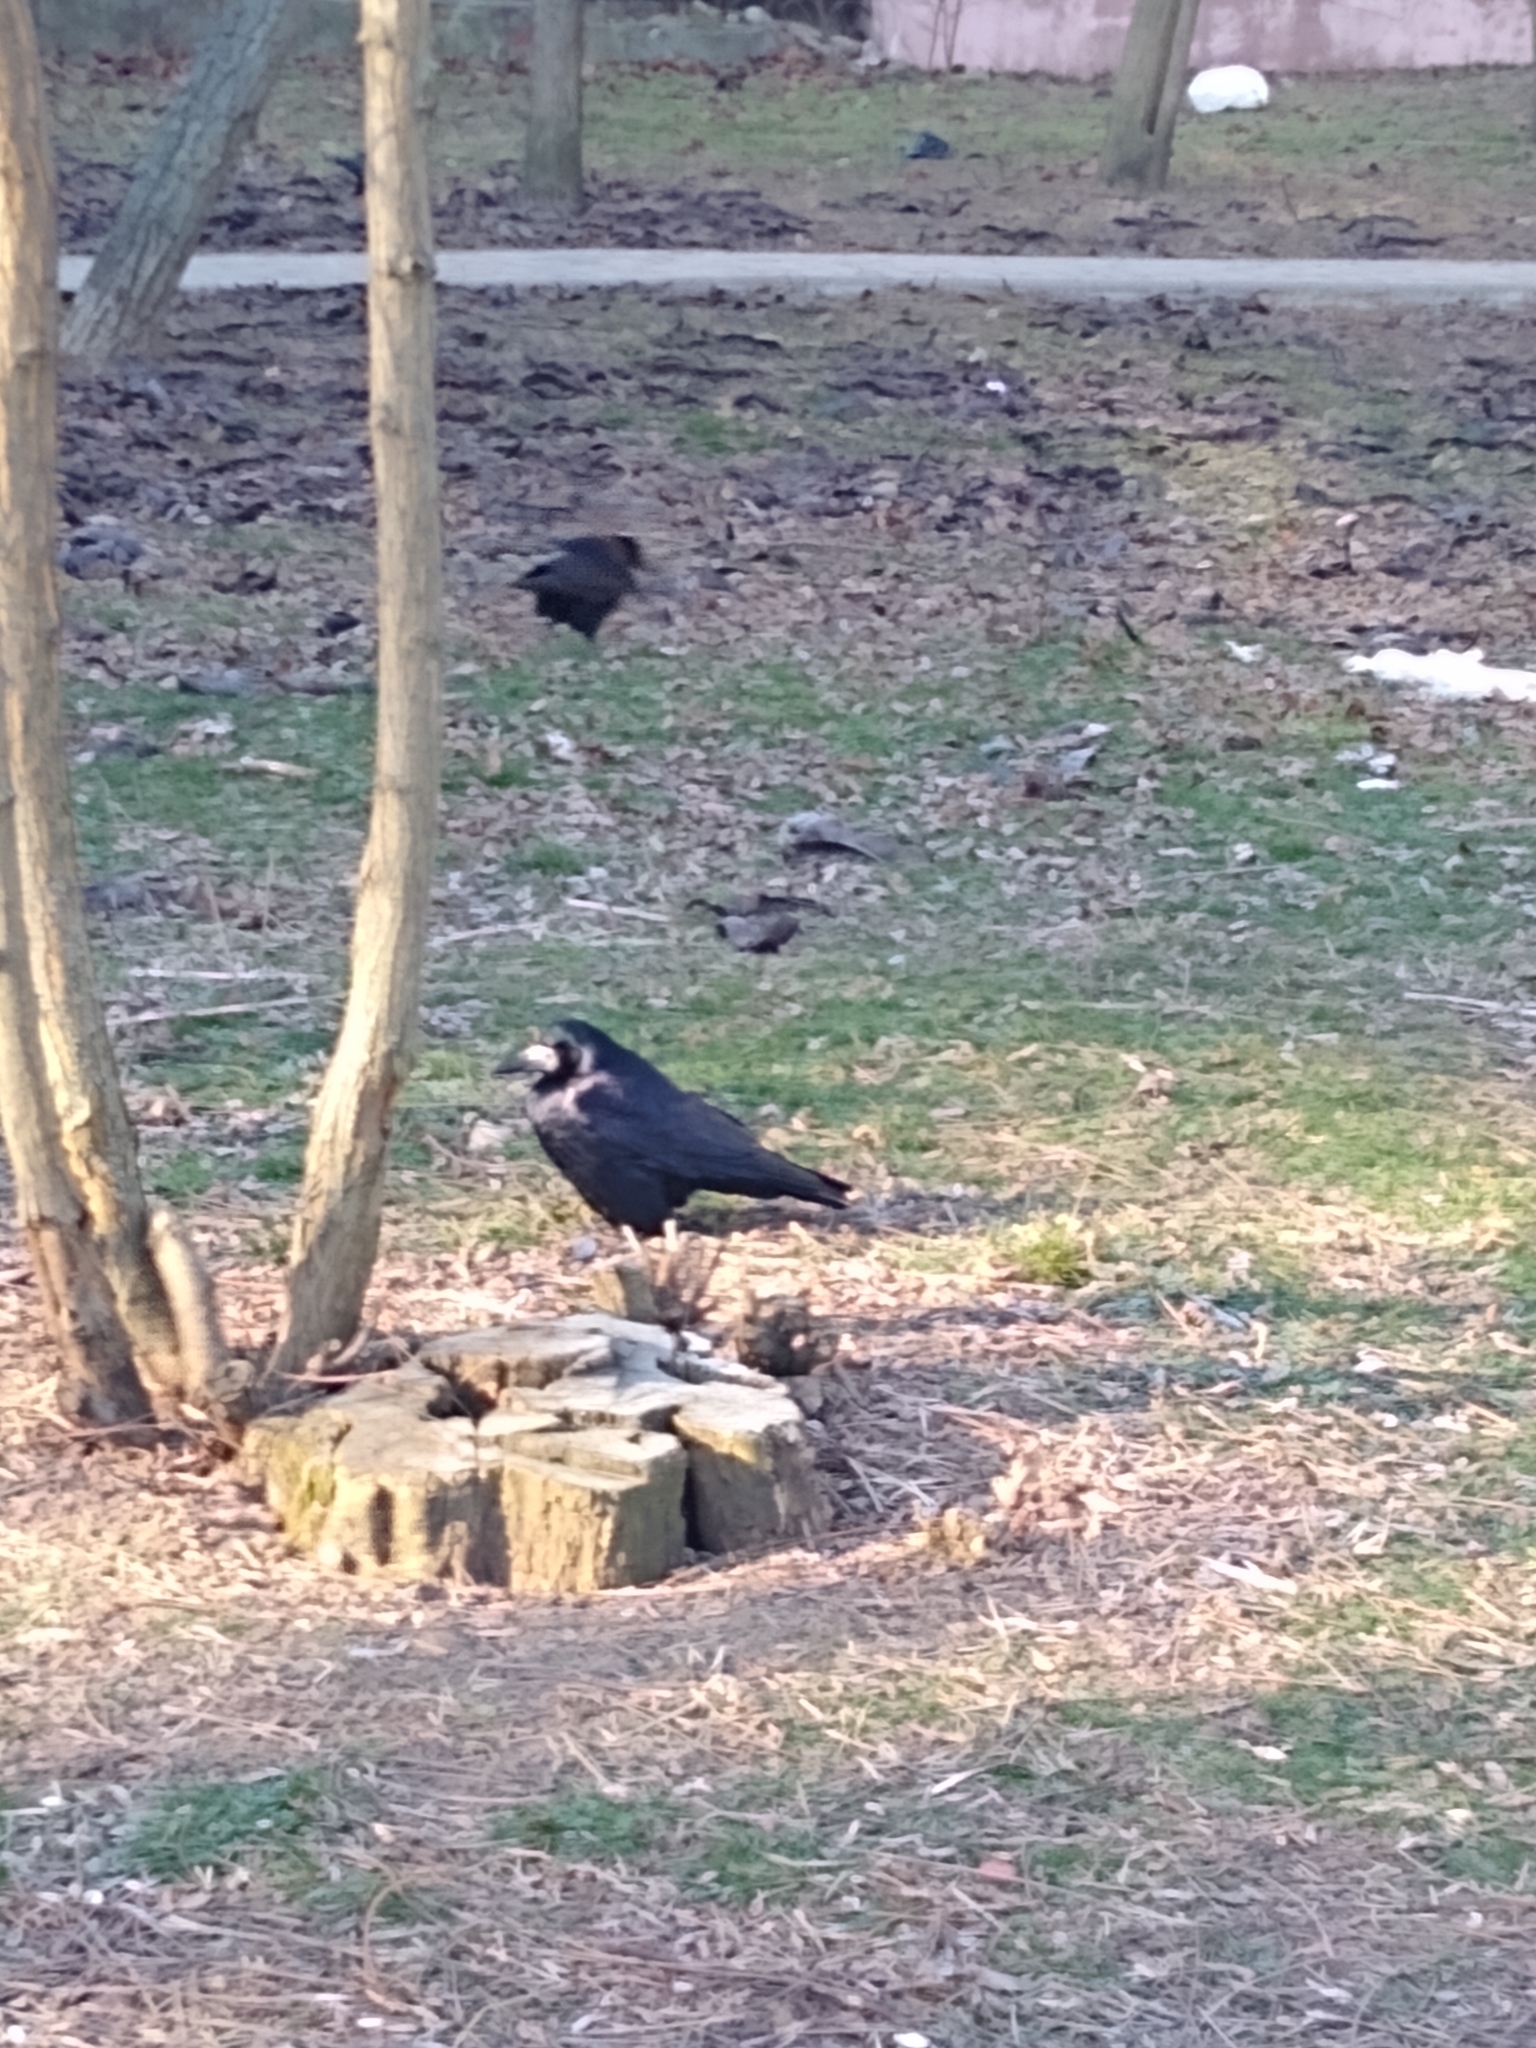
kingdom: Animalia
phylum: Chordata
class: Aves
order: Passeriformes
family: Corvidae
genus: Corvus
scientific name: Corvus frugilegus
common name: Rook
